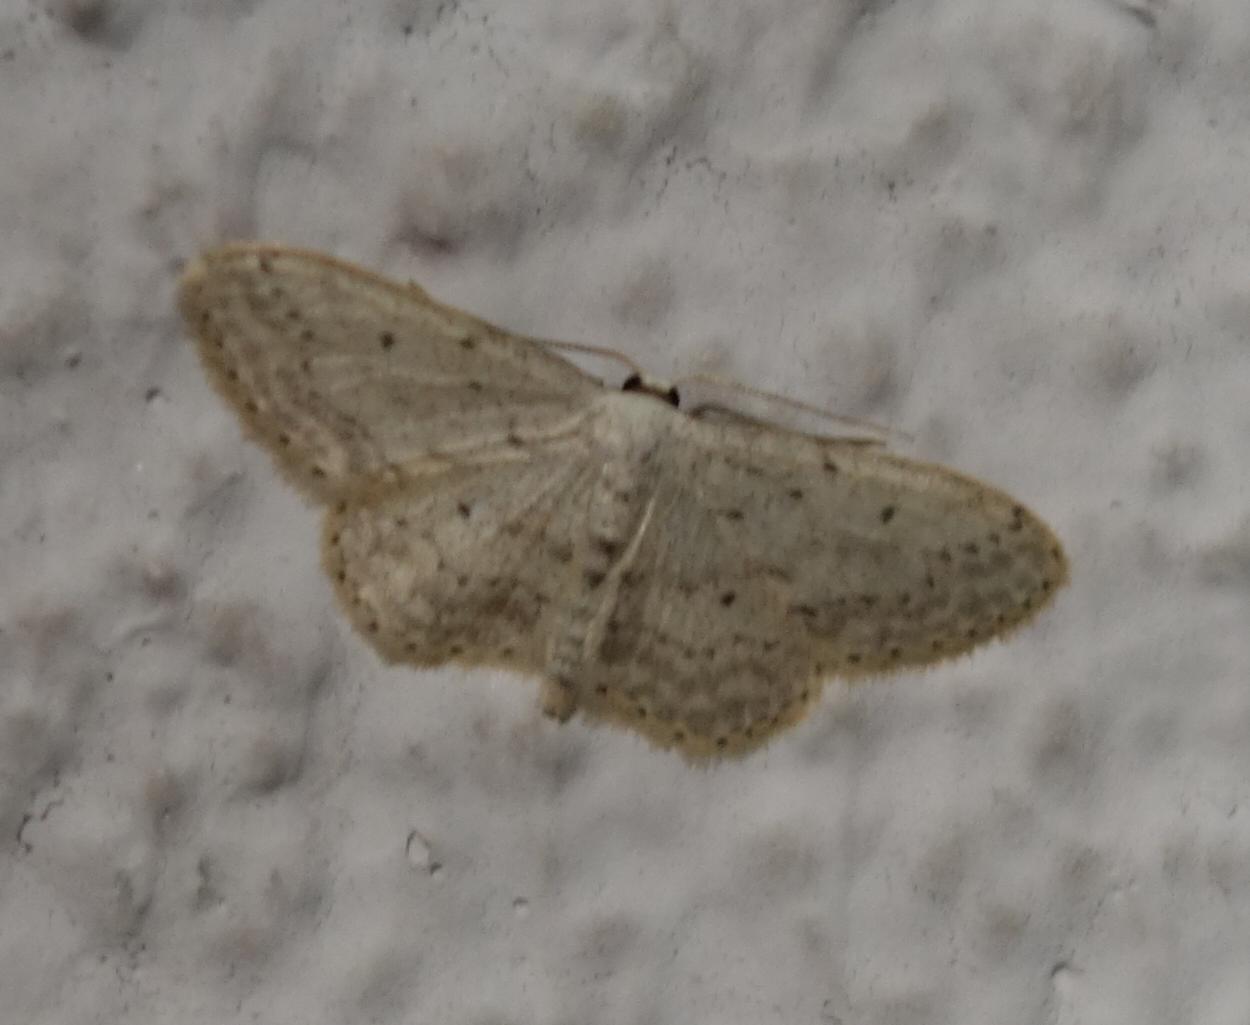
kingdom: Animalia
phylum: Arthropoda
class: Insecta
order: Lepidoptera
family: Geometridae
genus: Idaea
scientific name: Idaea seriata
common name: Small dusty wave
